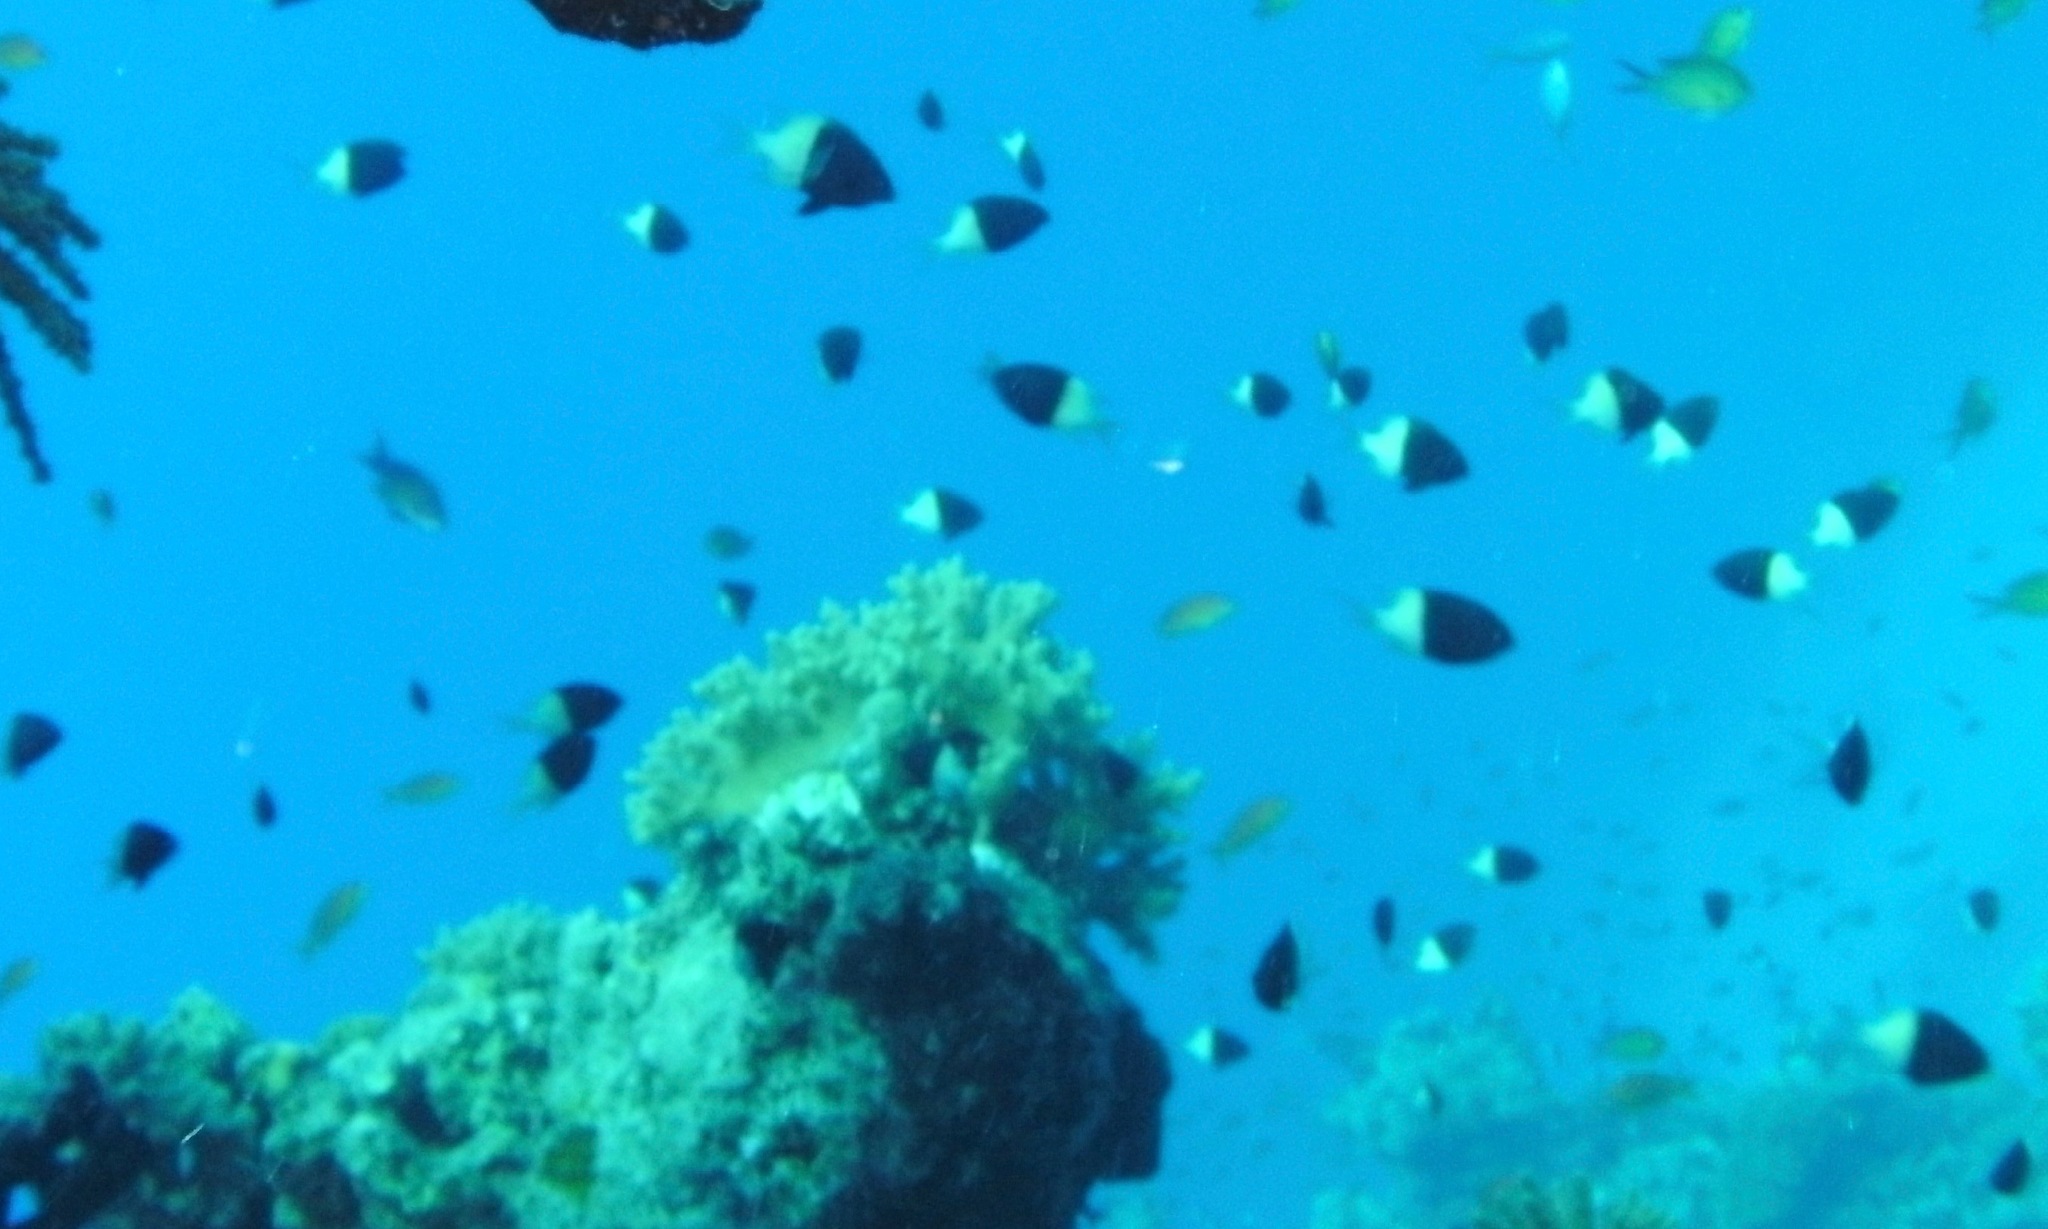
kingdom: Animalia
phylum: Chordata
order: Perciformes
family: Pomacentridae
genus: Chromis
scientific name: Chromis dimidiata
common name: Half-and-half chromis
